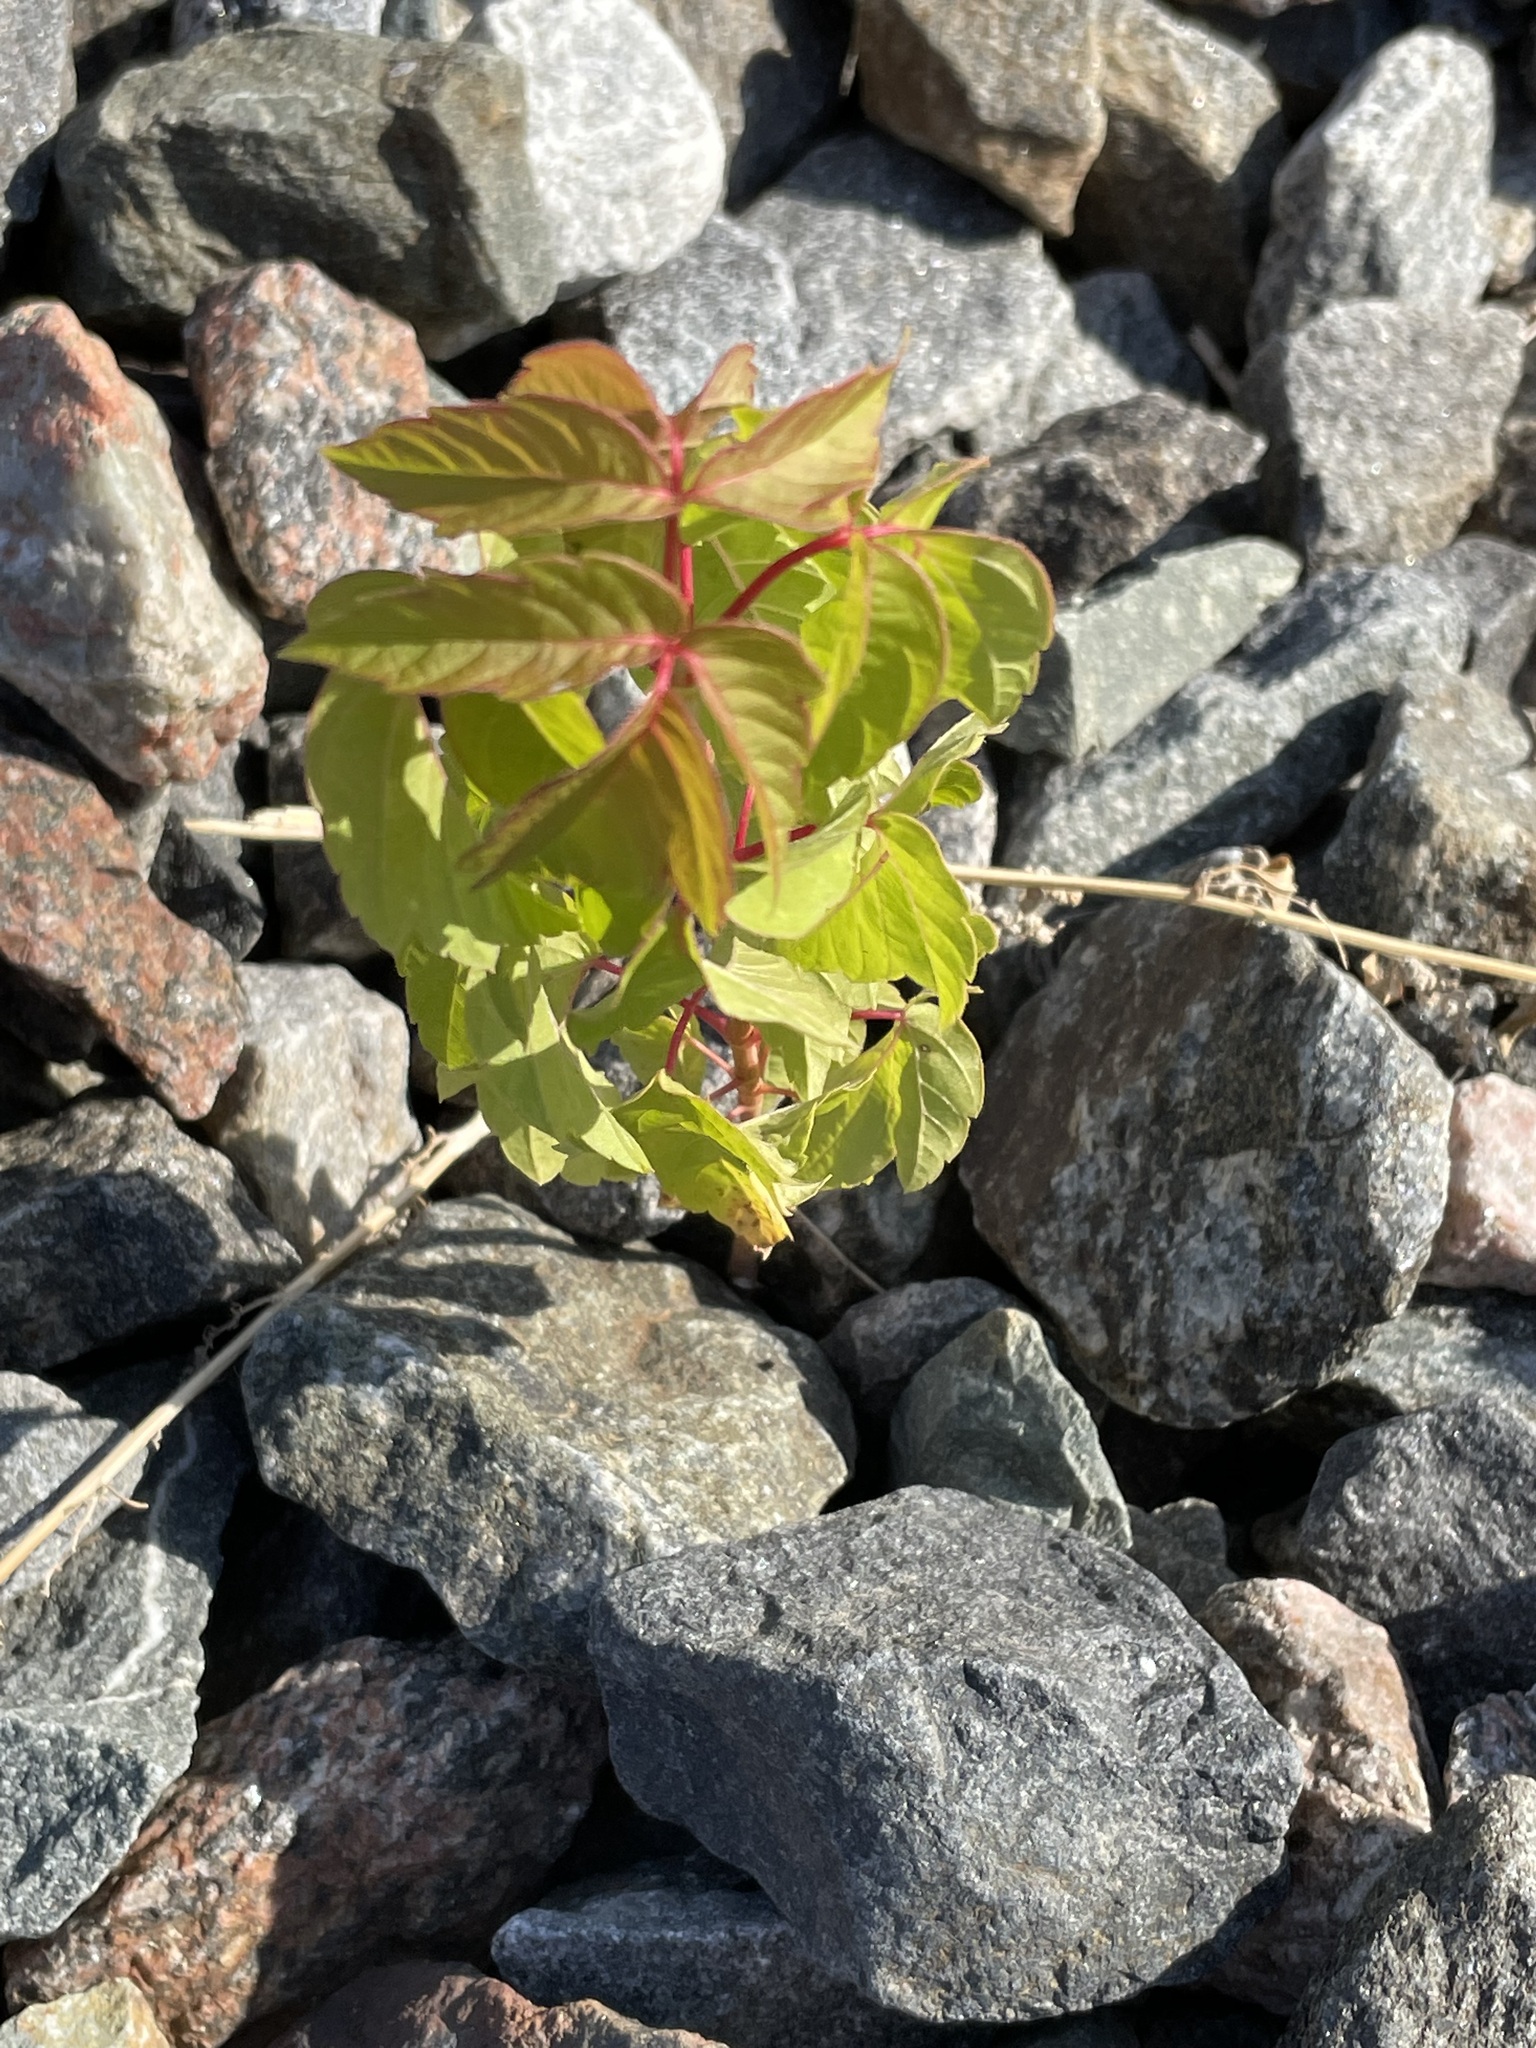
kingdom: Plantae
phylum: Tracheophyta
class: Magnoliopsida
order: Sapindales
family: Sapindaceae
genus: Acer
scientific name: Acer negundo
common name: Ashleaf maple
